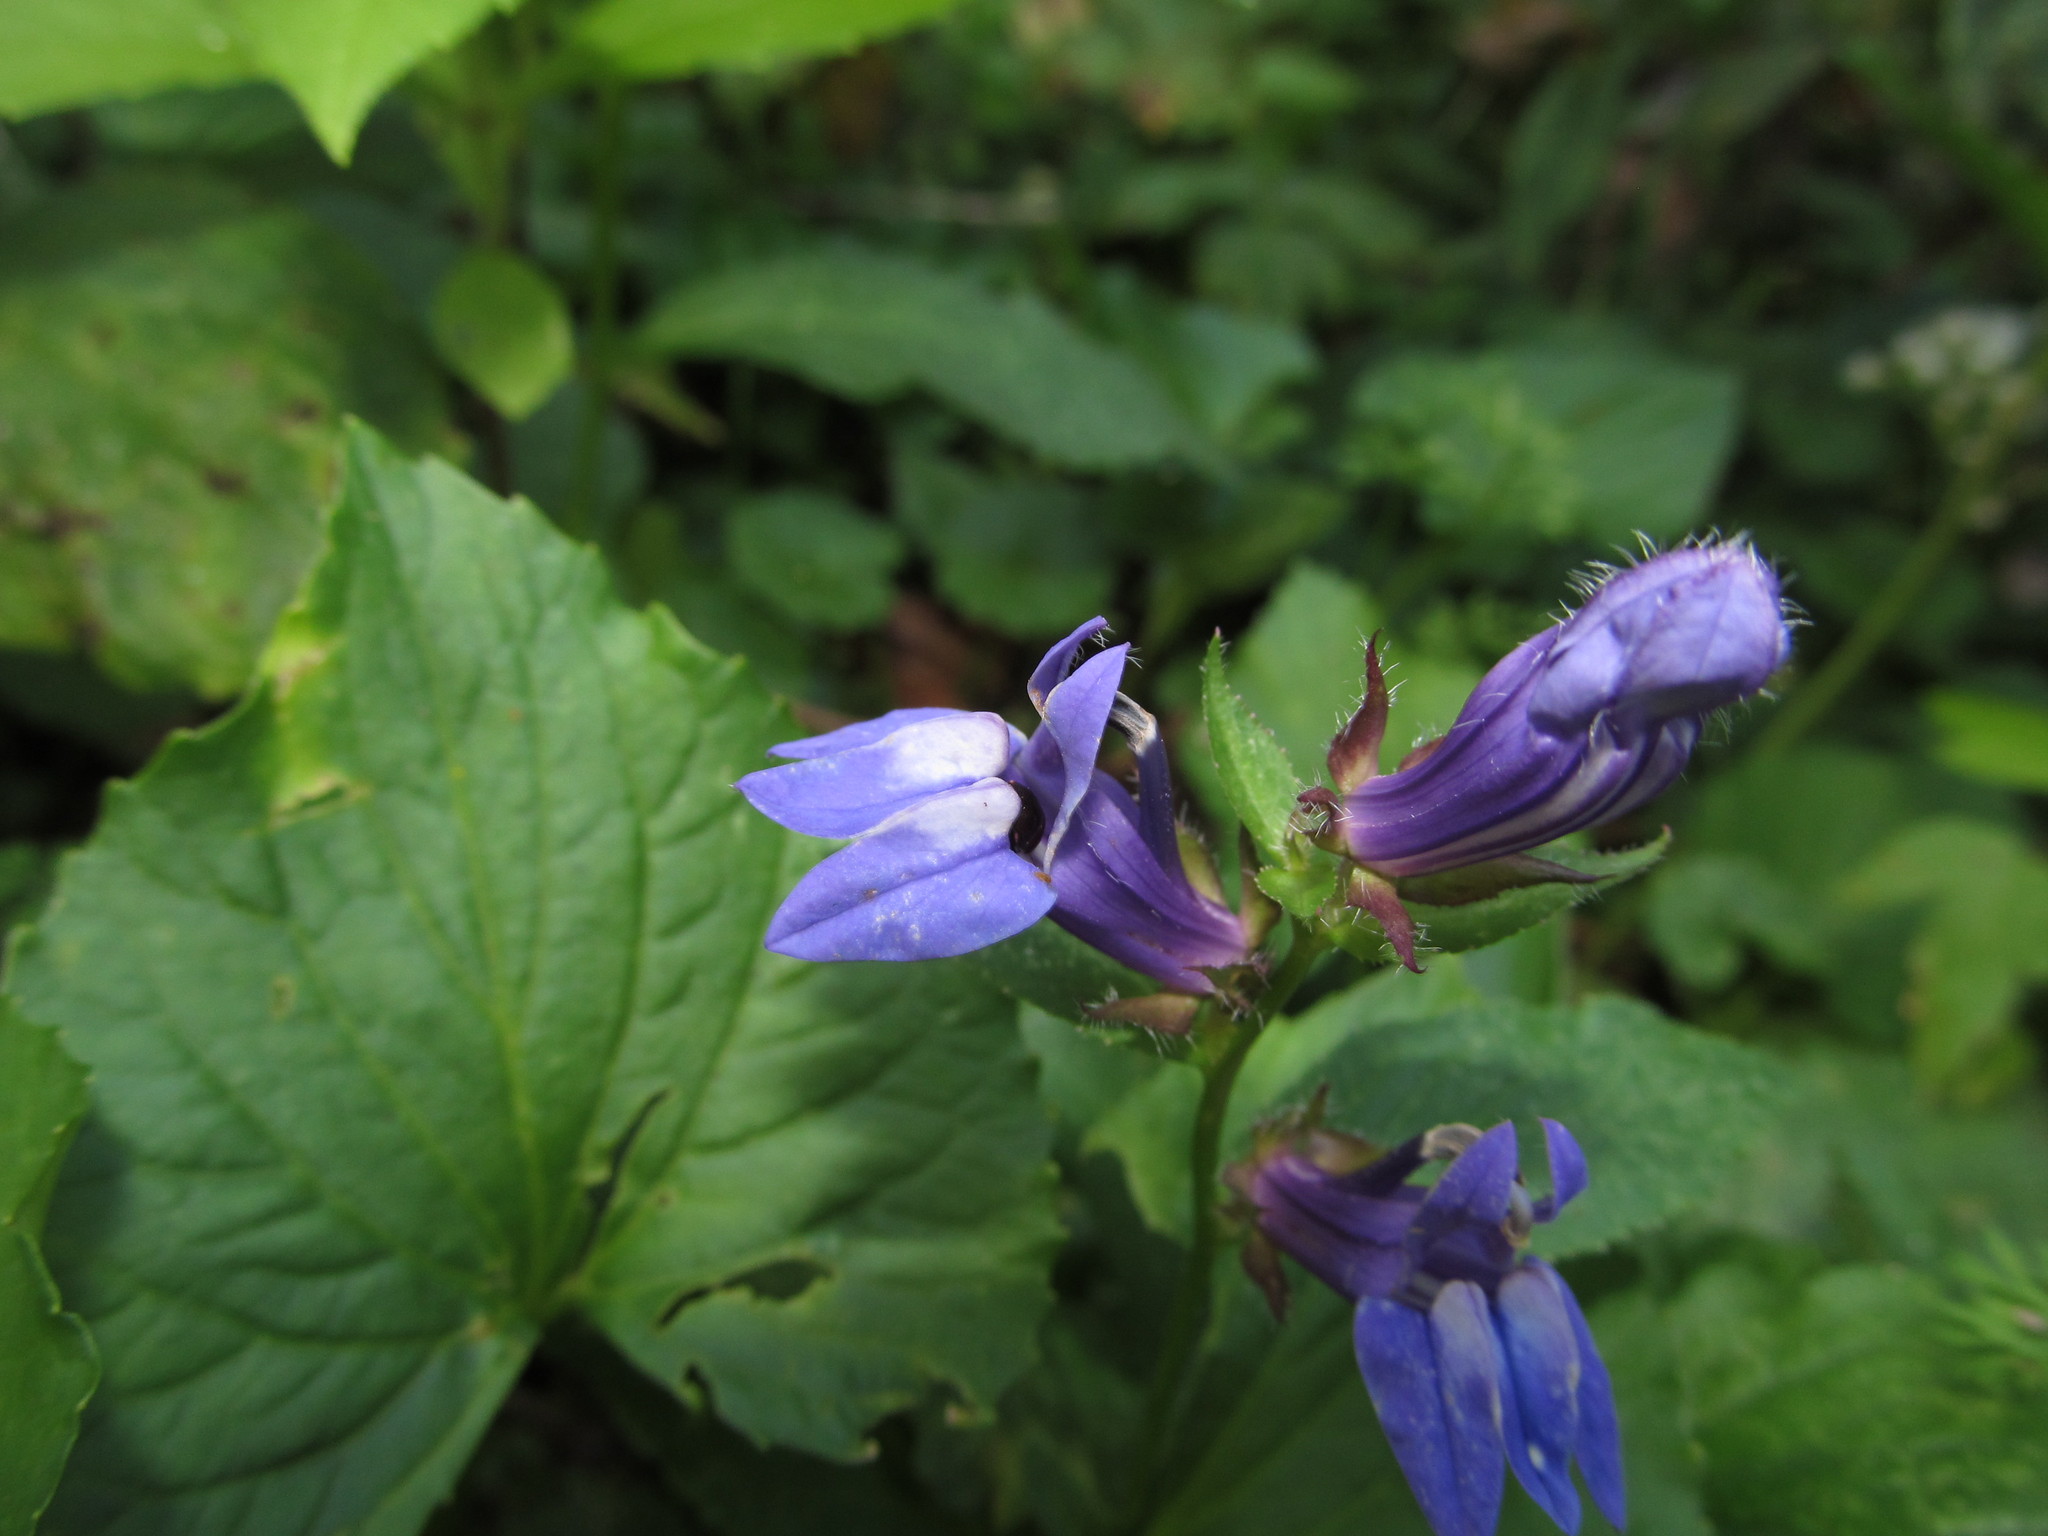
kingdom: Plantae
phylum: Tracheophyta
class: Magnoliopsida
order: Asterales
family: Campanulaceae
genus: Lobelia
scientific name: Lobelia siphilitica
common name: Great lobelia
